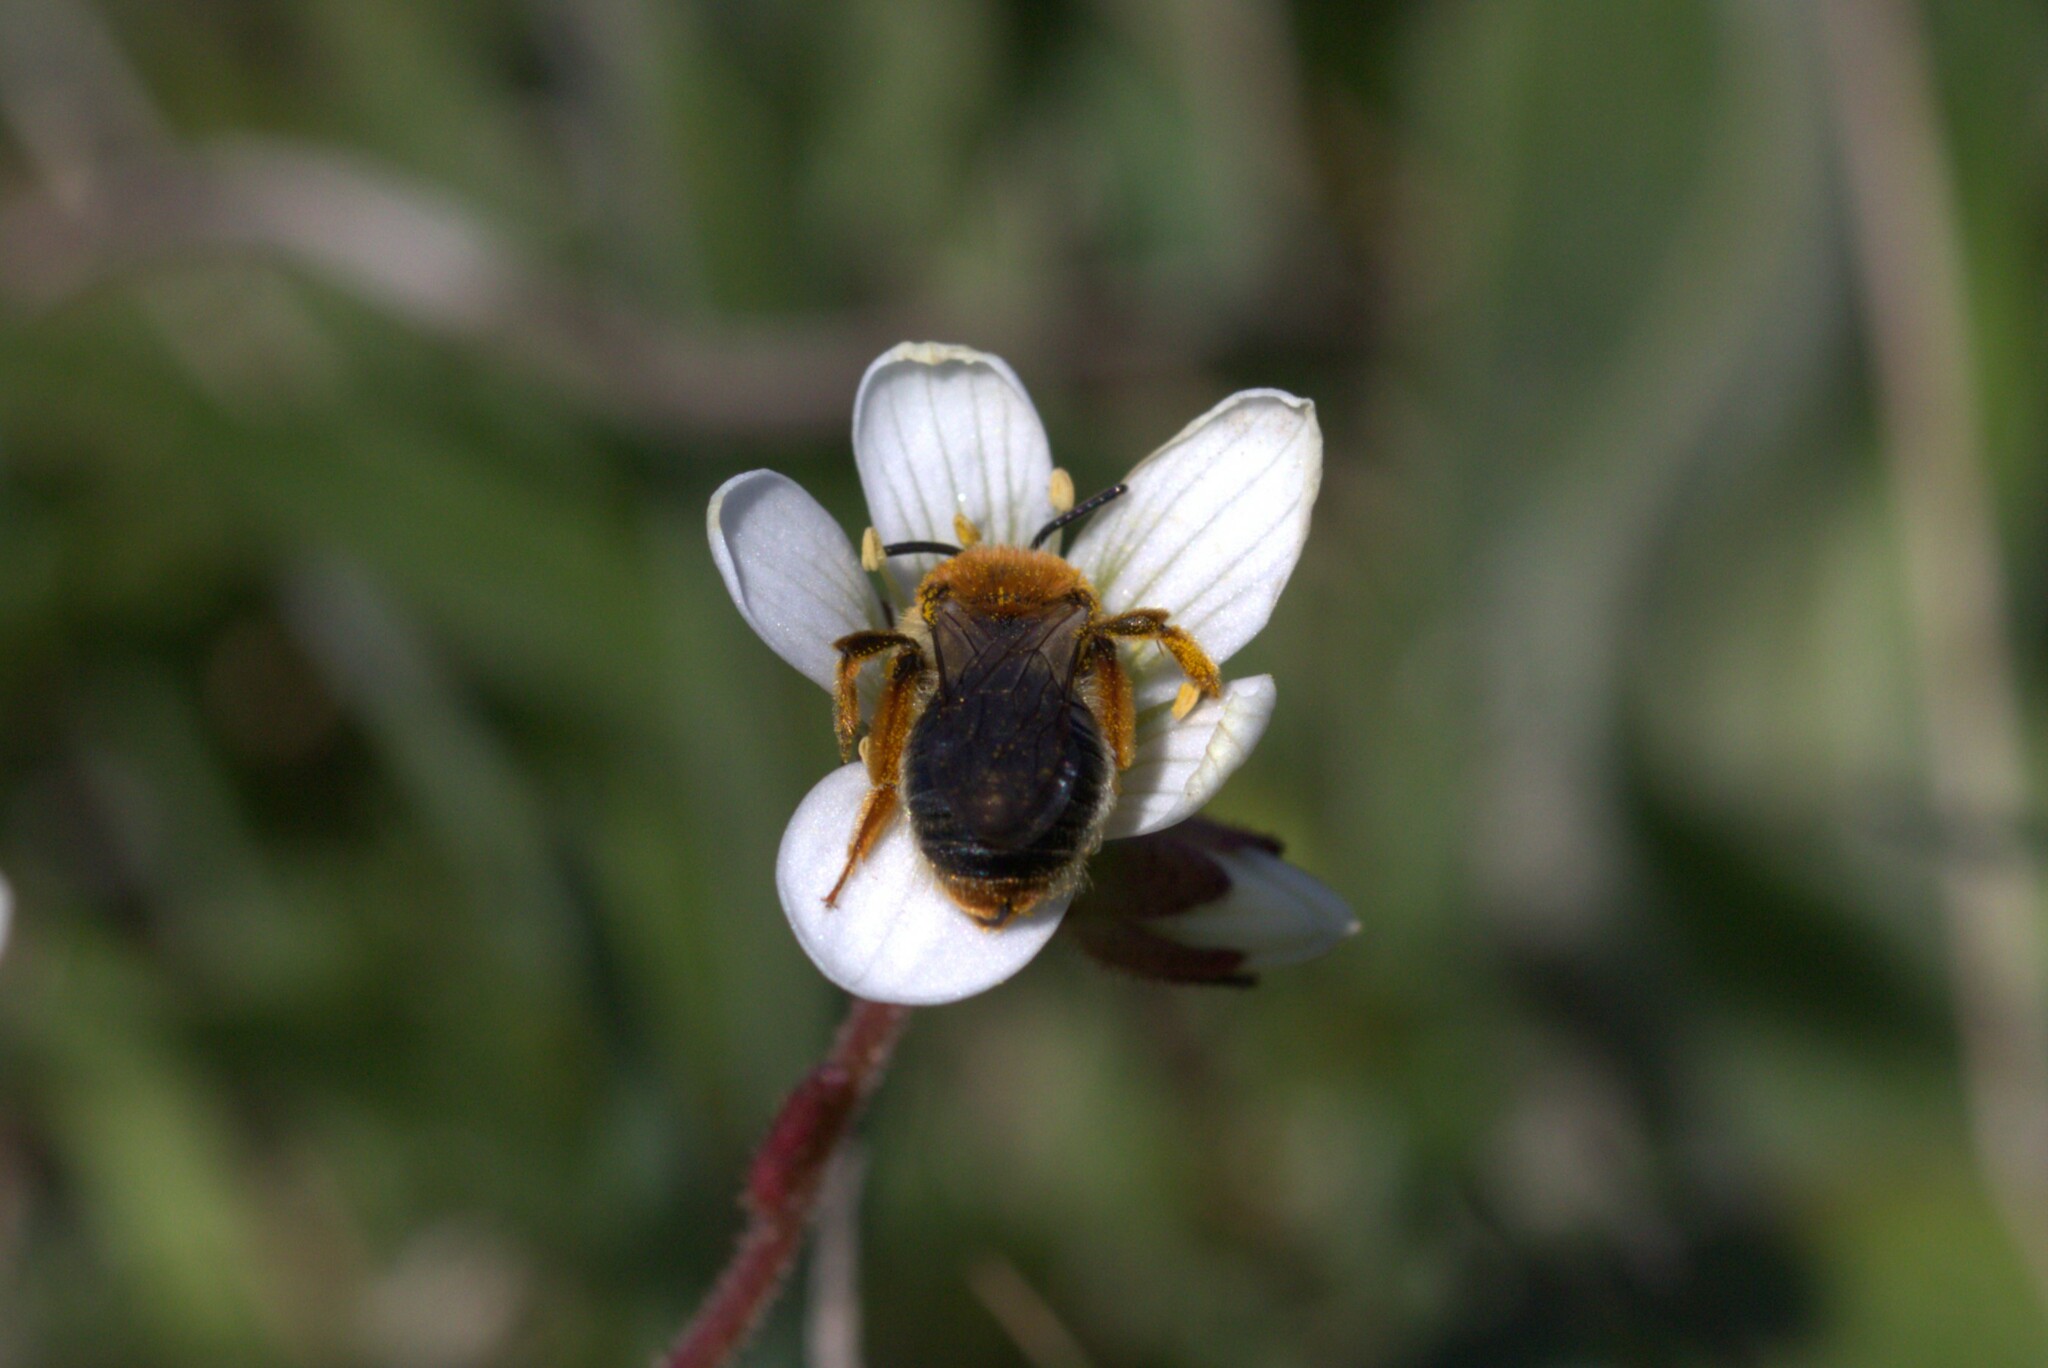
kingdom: Animalia
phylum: Arthropoda
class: Insecta
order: Hymenoptera
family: Andrenidae
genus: Andrena
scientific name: Andrena haemorrhoa
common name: Early mining bee
